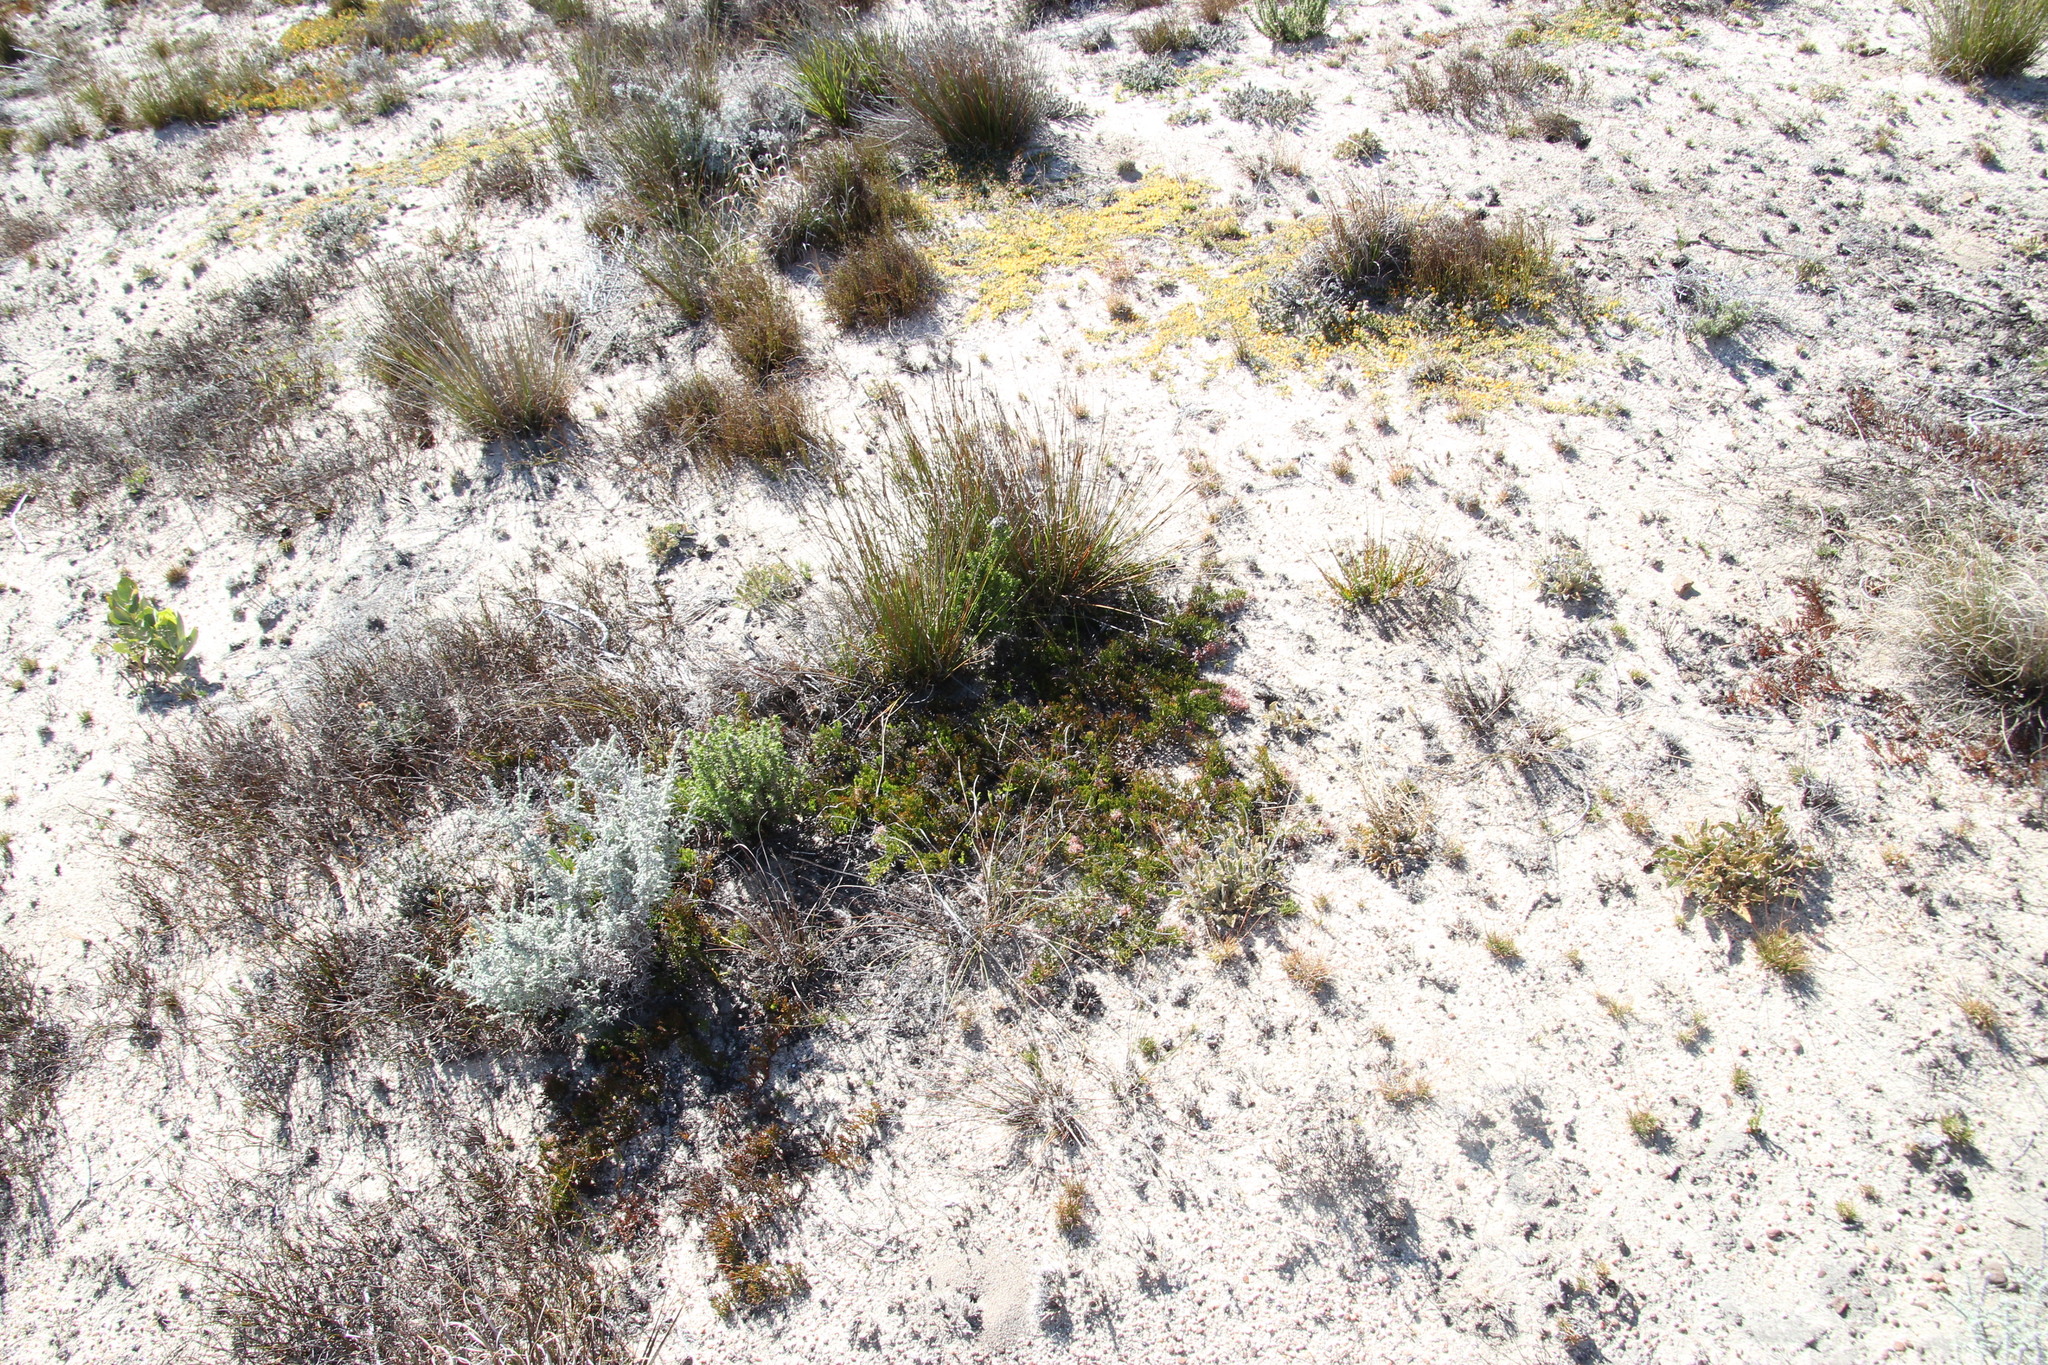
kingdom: Plantae
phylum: Tracheophyta
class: Magnoliopsida
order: Proteales
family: Proteaceae
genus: Serruria
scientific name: Serruria cygnea
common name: Swan spiderhead
